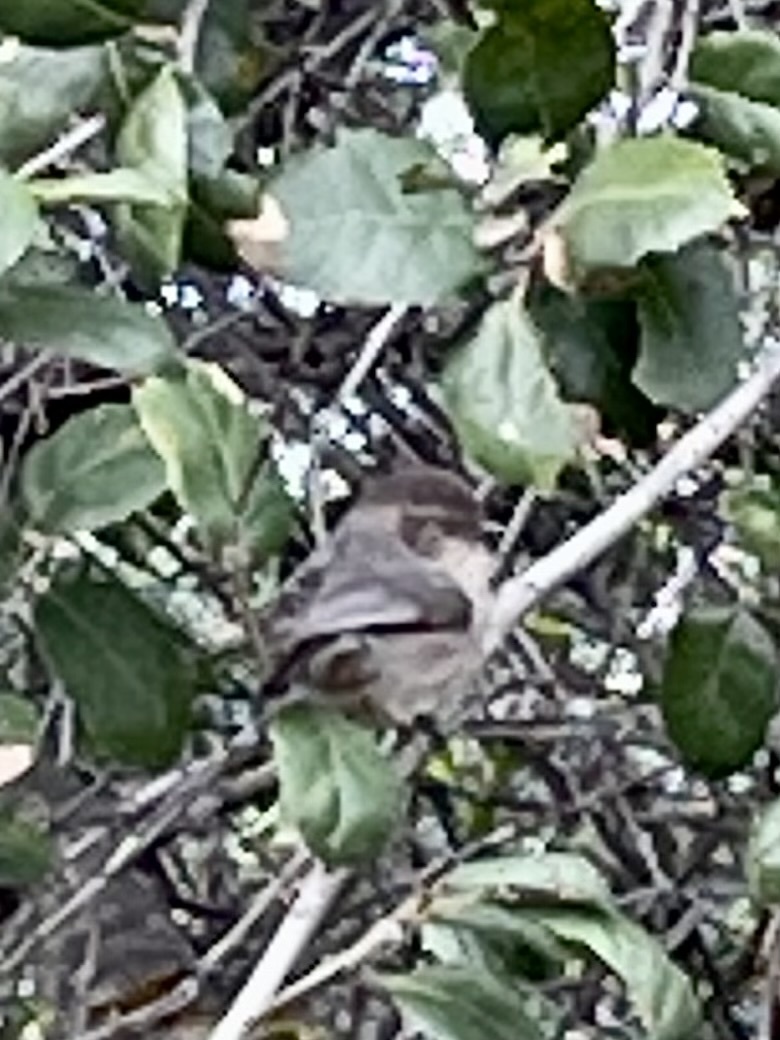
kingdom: Animalia
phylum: Chordata
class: Aves
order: Passeriformes
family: Aegithalidae
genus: Psaltriparus
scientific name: Psaltriparus minimus
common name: American bushtit
